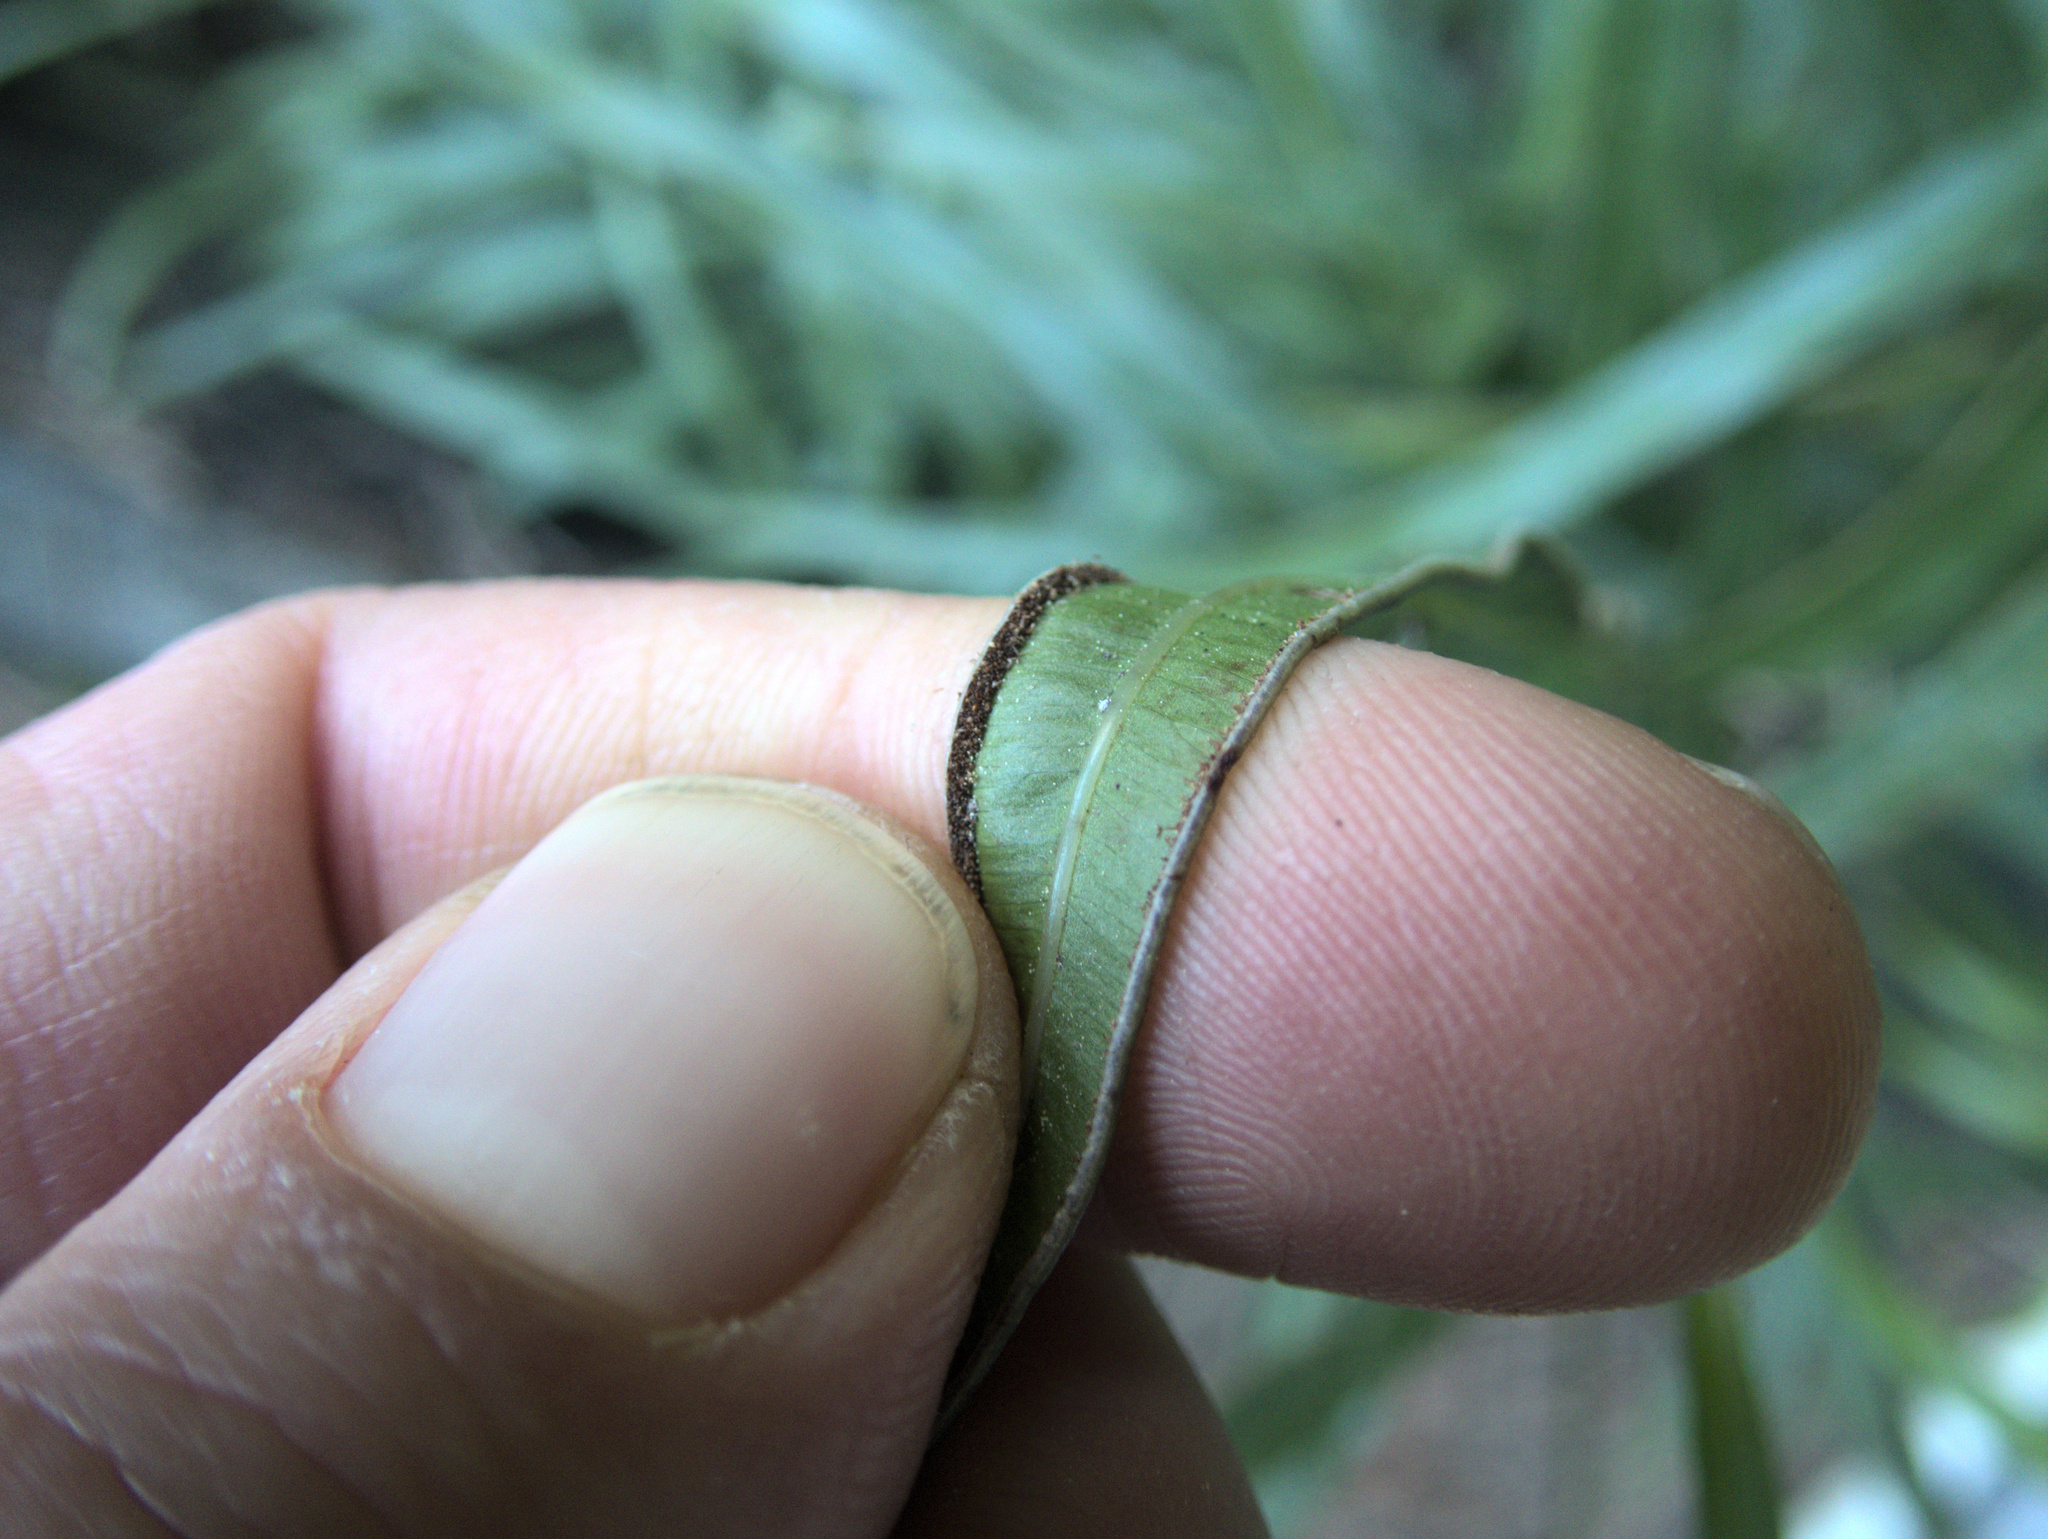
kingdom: Plantae
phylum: Tracheophyta
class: Polypodiopsida
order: Polypodiales
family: Pteridaceae
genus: Pteris
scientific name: Pteris cretica
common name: Ribbon fern
